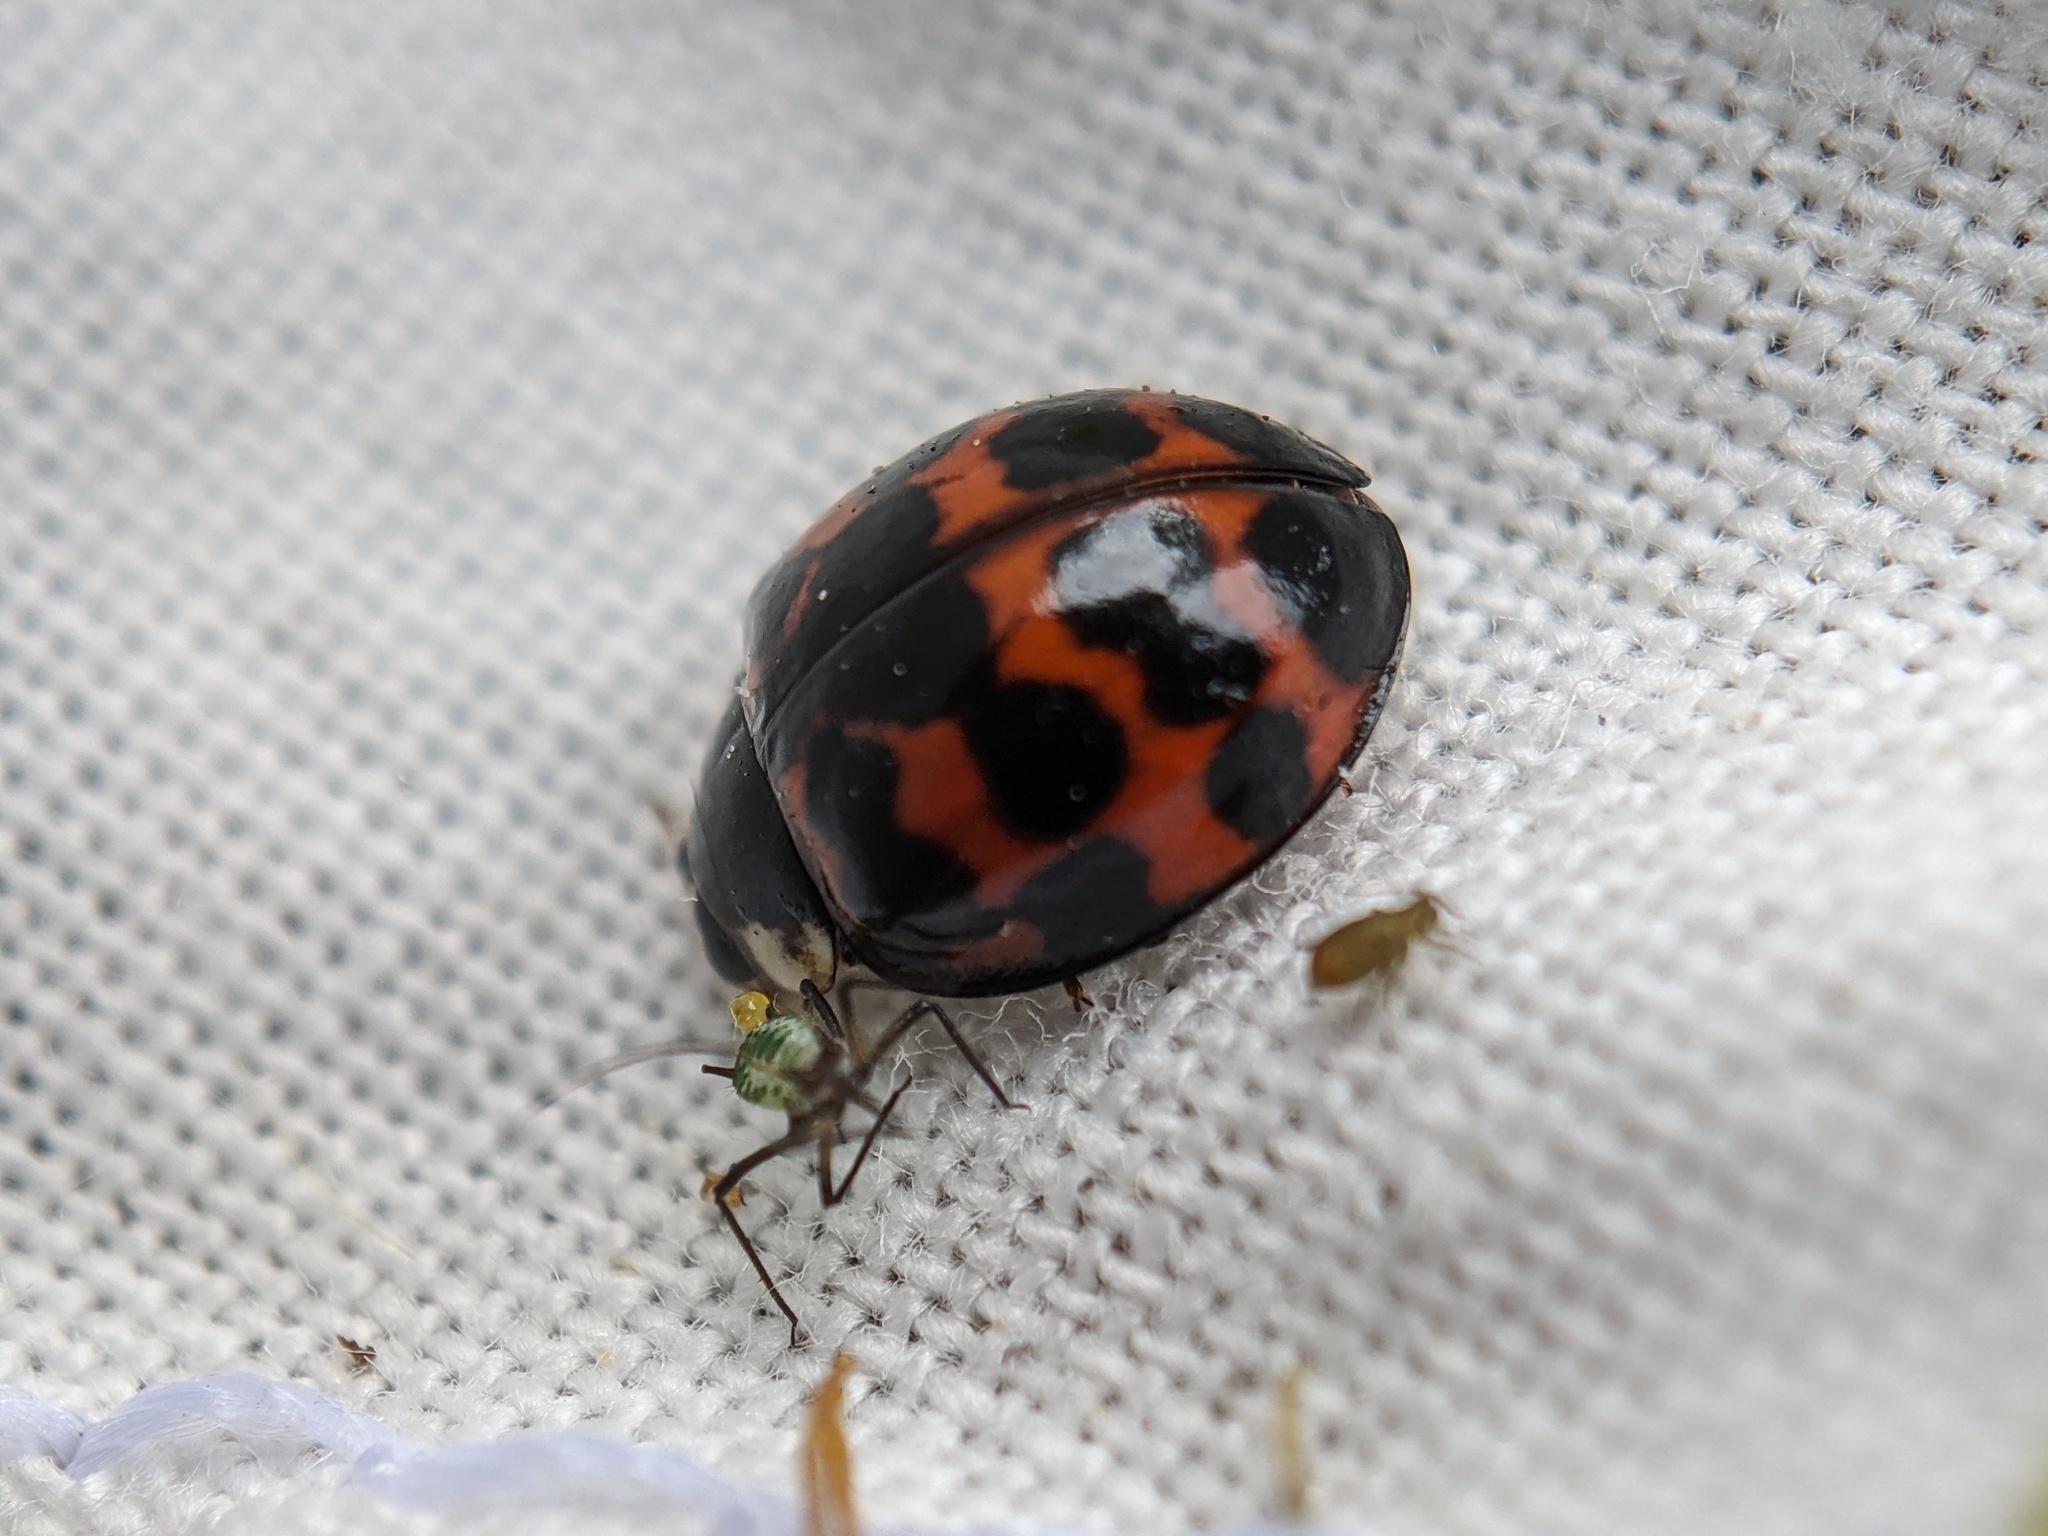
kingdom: Animalia
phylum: Arthropoda
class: Insecta
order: Coleoptera
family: Coccinellidae
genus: Harmonia
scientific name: Harmonia axyridis
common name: Harlequin ladybird
